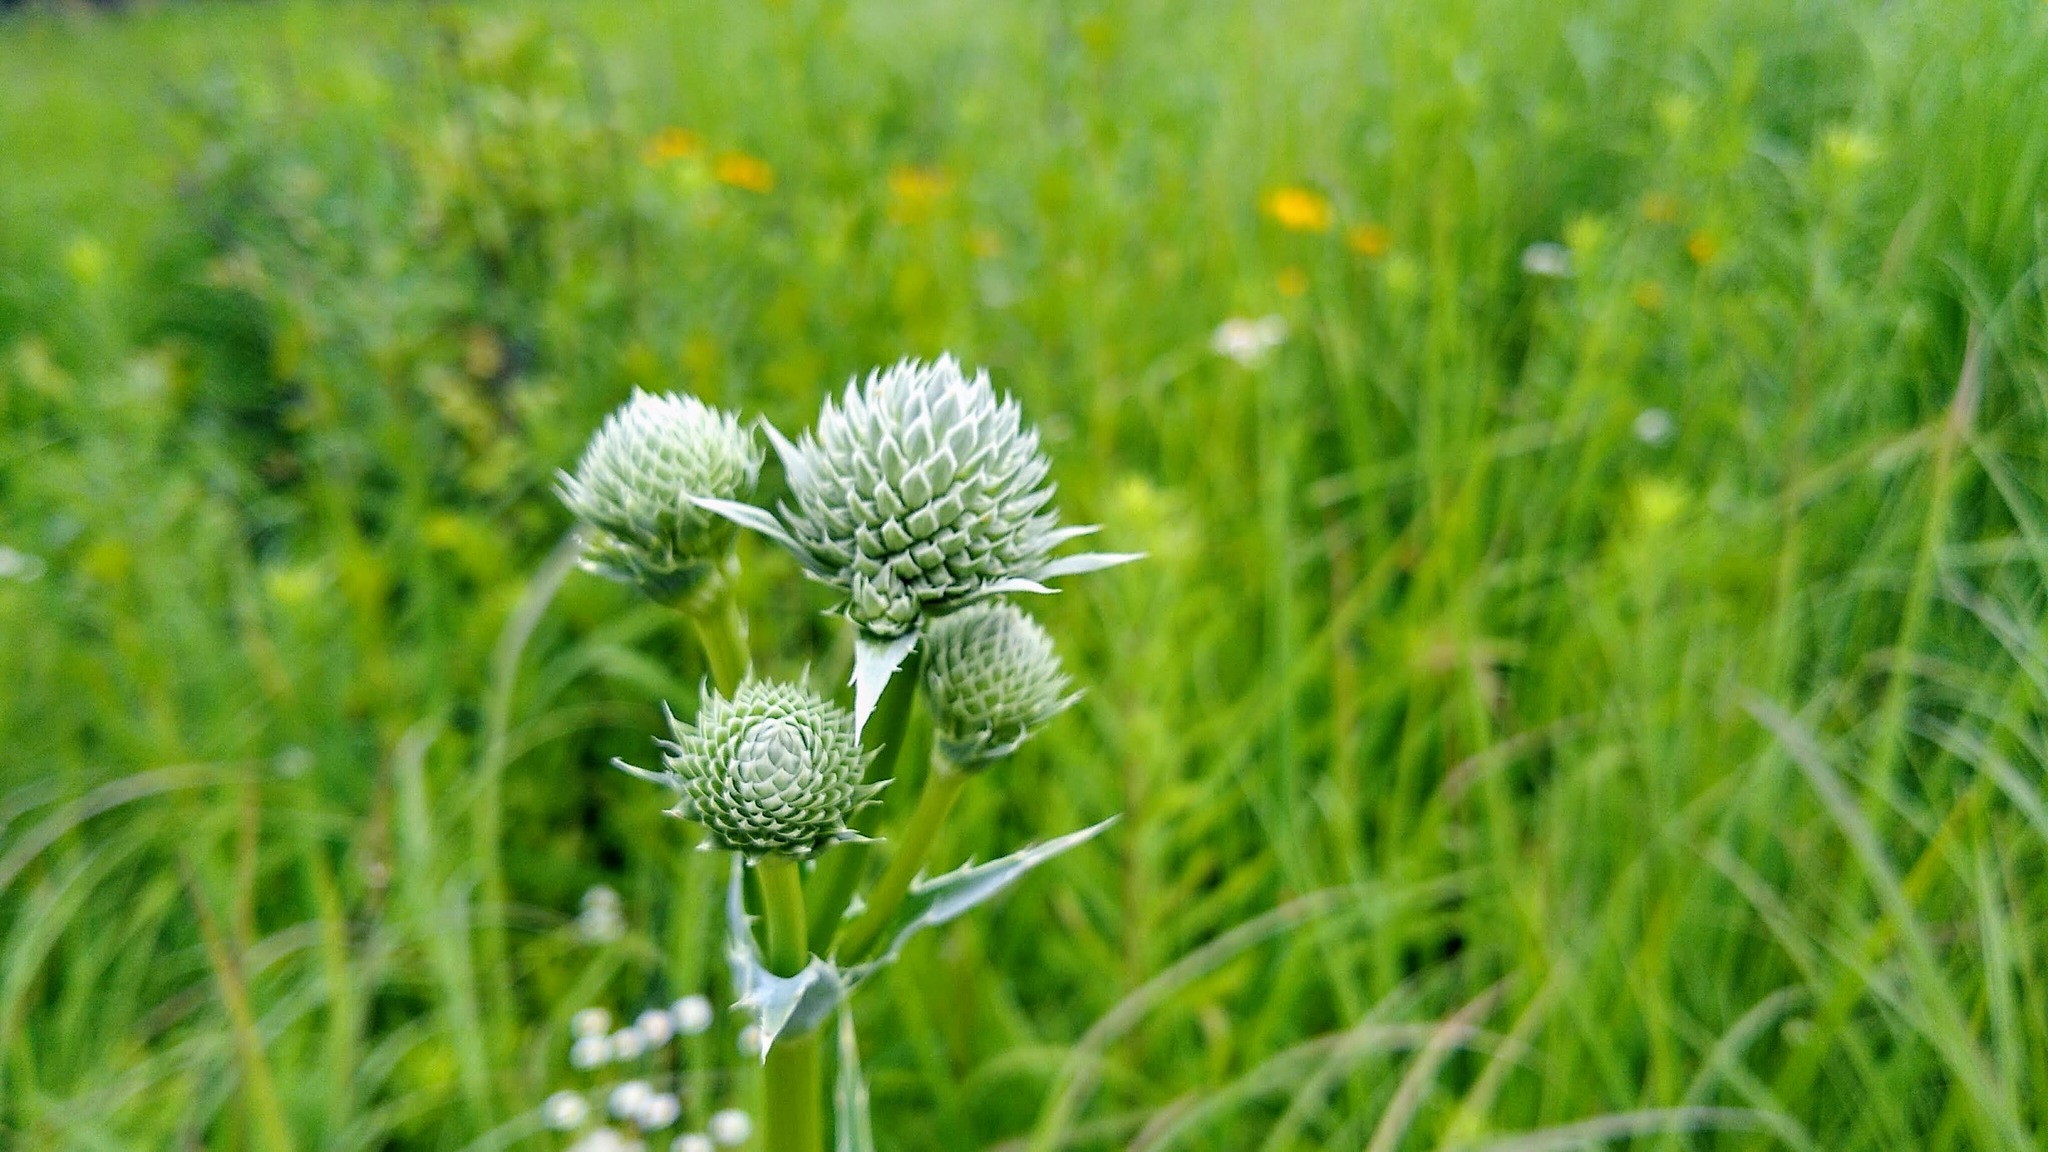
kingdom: Plantae
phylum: Tracheophyta
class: Magnoliopsida
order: Apiales
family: Apiaceae
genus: Eryngium
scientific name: Eryngium yuccifolium
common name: Button eryngo
